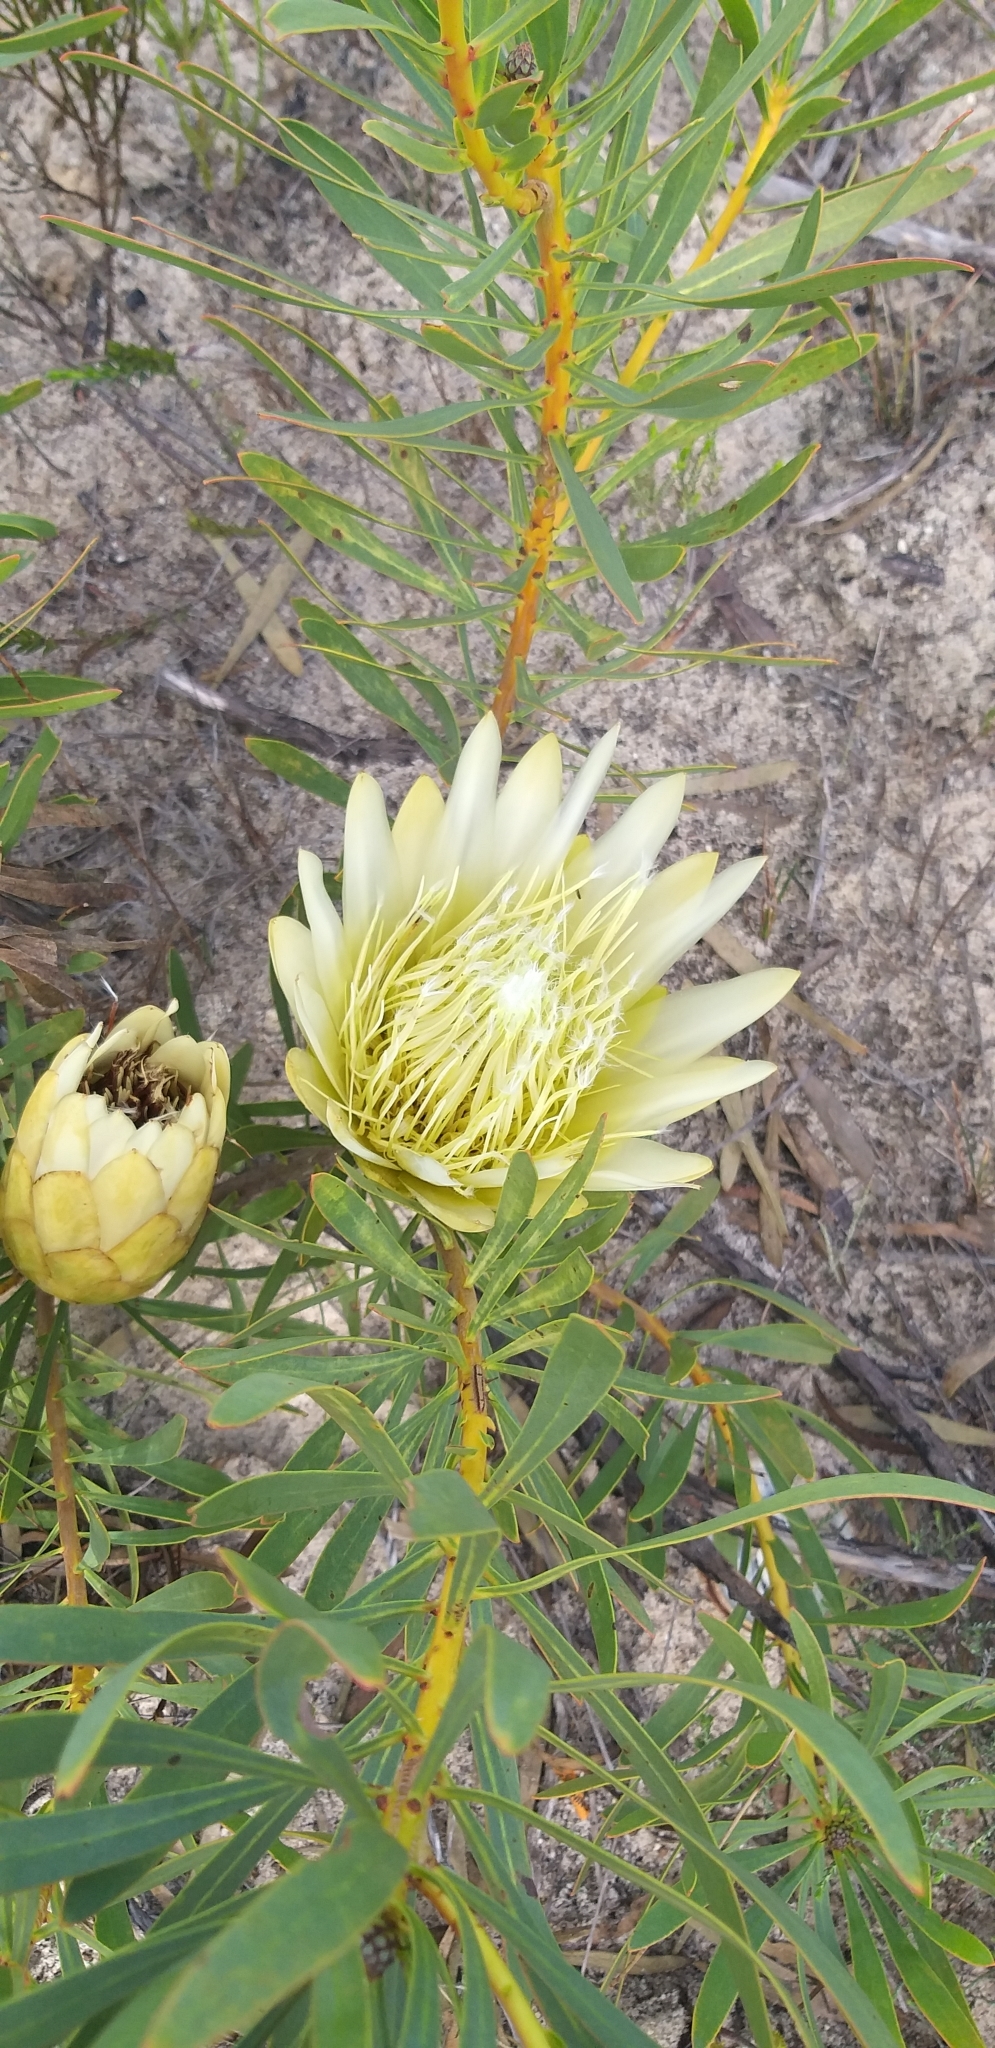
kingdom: Plantae
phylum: Tracheophyta
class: Magnoliopsida
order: Proteales
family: Proteaceae
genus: Protea
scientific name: Protea repens
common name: Sugarbush
